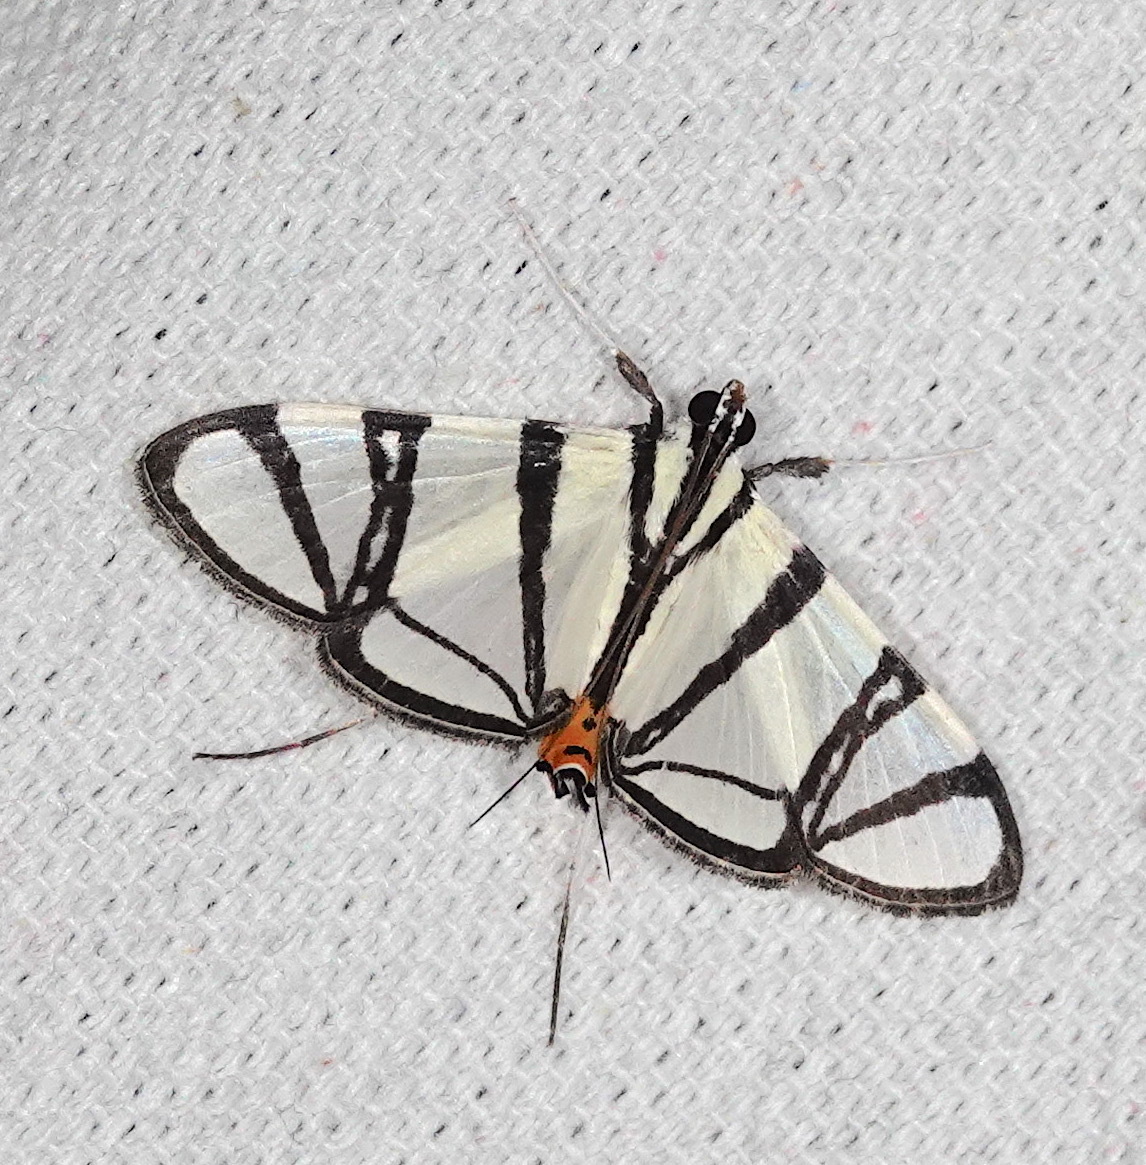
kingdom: Animalia
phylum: Arthropoda
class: Insecta
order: Lepidoptera
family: Crambidae
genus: Conchylodes
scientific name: Conchylodes nolckenialis
